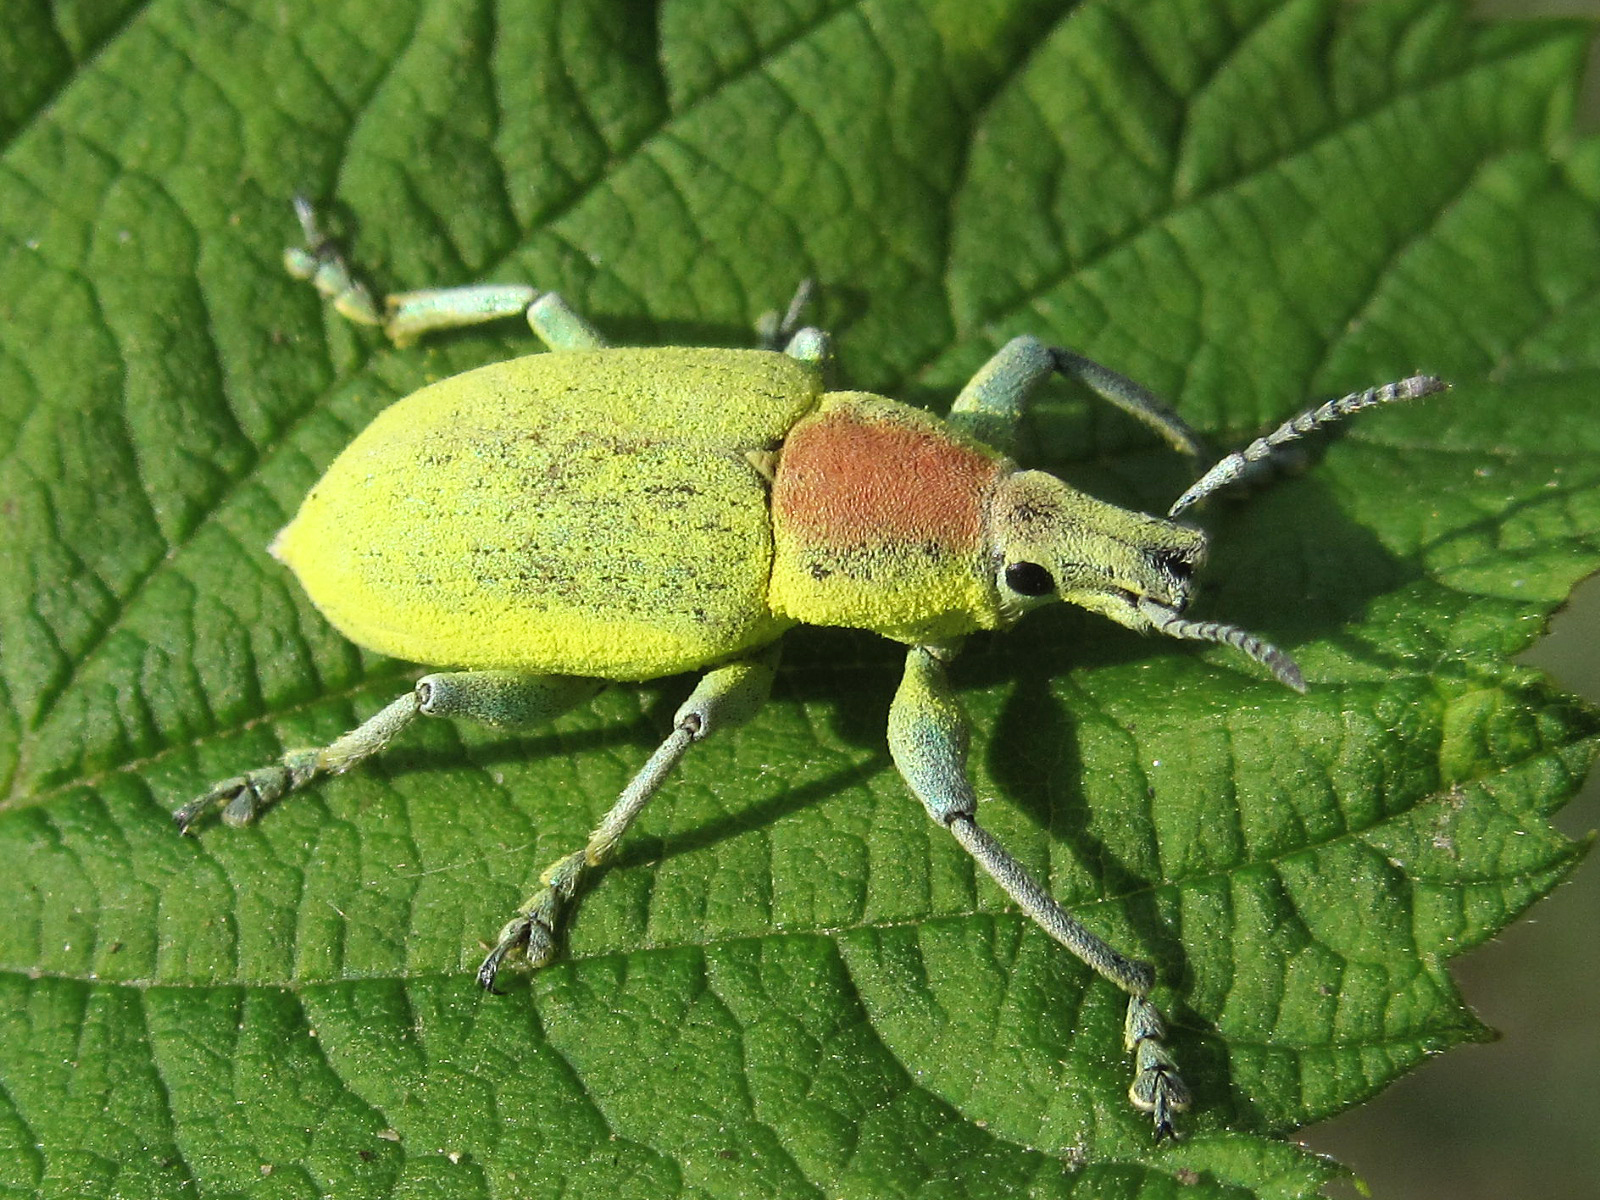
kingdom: Animalia
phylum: Arthropoda
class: Insecta
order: Coleoptera
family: Curculionidae
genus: Chlorophanus
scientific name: Chlorophanus micans
